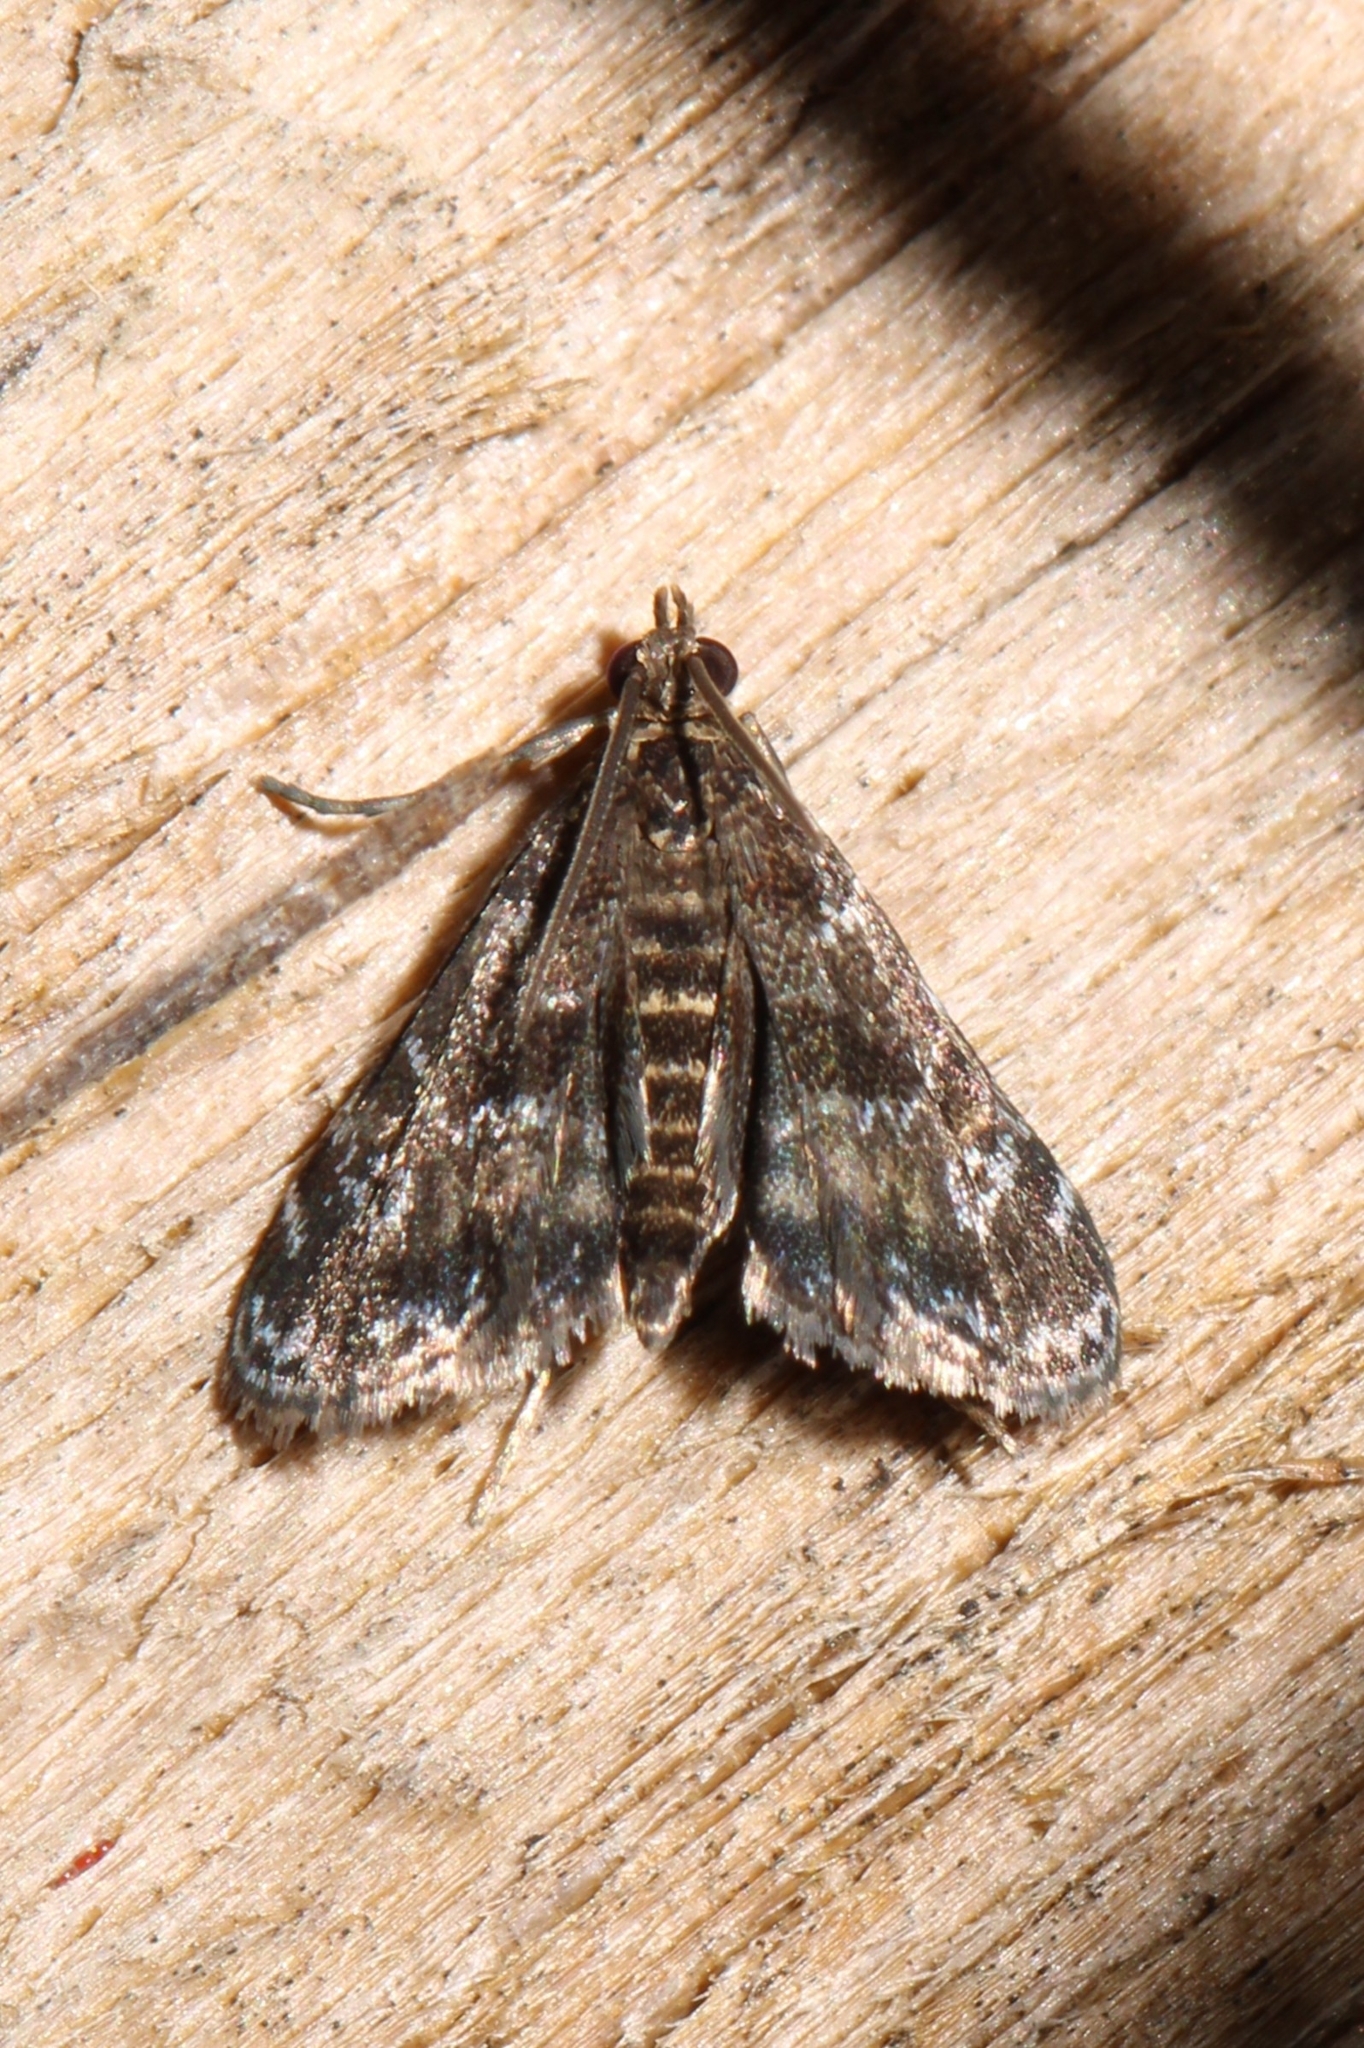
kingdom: Animalia
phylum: Arthropoda
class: Insecta
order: Lepidoptera
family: Crambidae
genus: Elophila
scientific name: Elophila obliteralis
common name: Waterlily leafcutter moth
